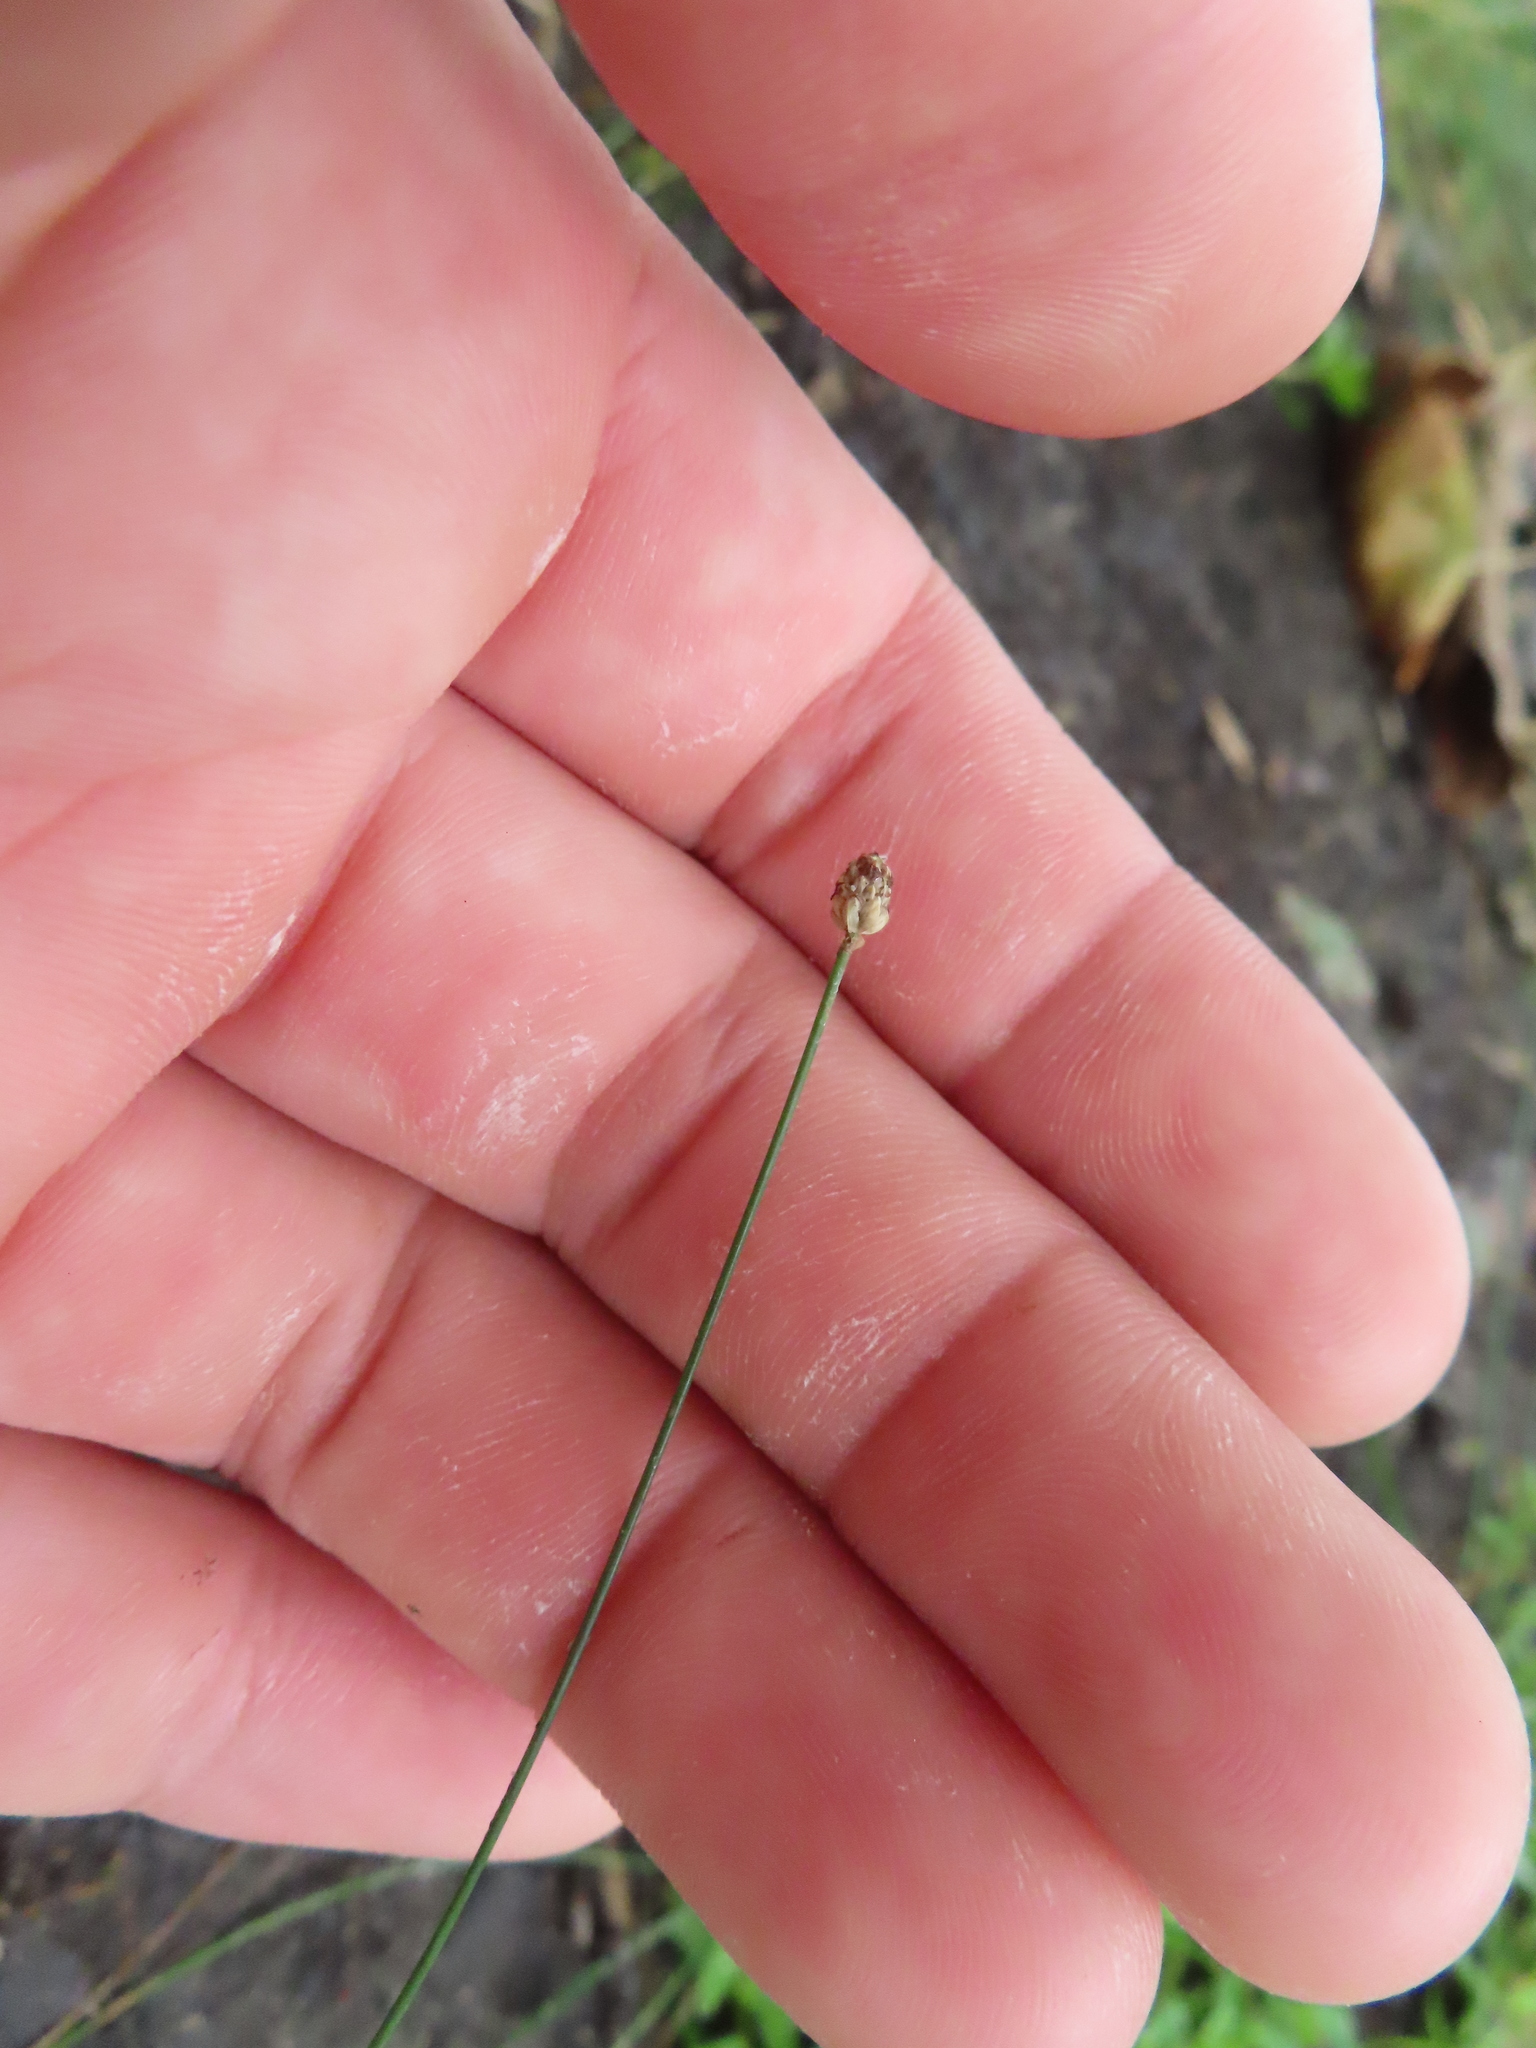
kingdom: Plantae
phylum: Tracheophyta
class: Liliopsida
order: Poales
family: Cyperaceae
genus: Eleocharis
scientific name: Eleocharis geniculata
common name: Canada spikesedge
